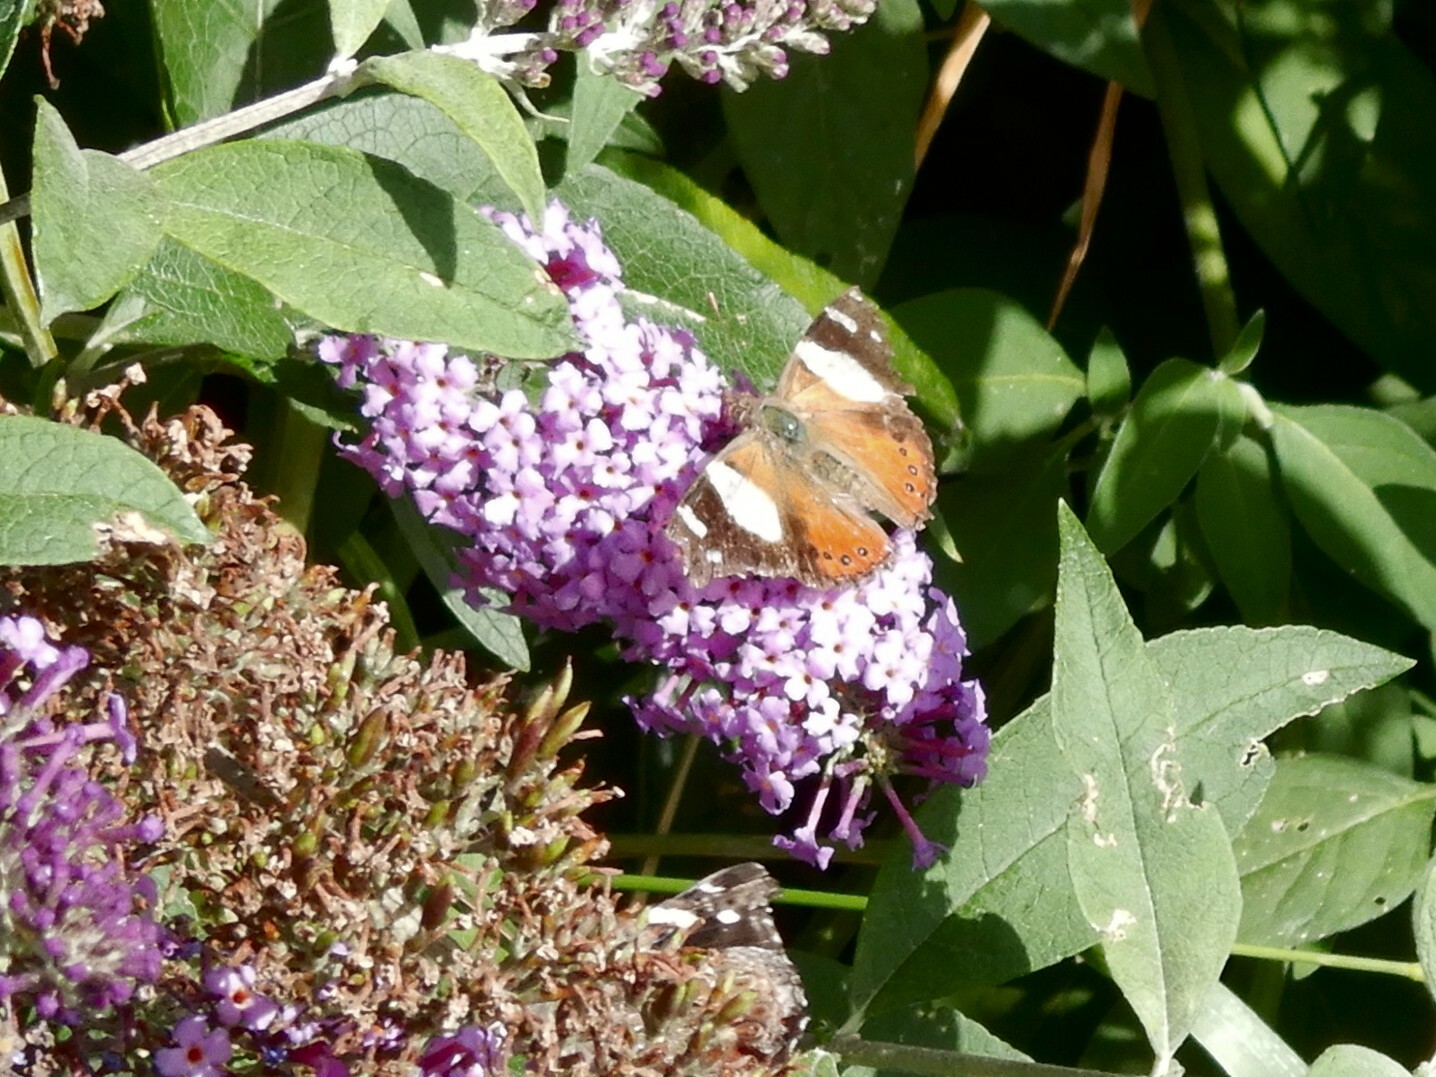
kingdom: Animalia
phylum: Arthropoda
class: Insecta
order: Lepidoptera
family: Nymphalidae
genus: Vanessa
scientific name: Vanessa itea
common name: Yellow admiral
